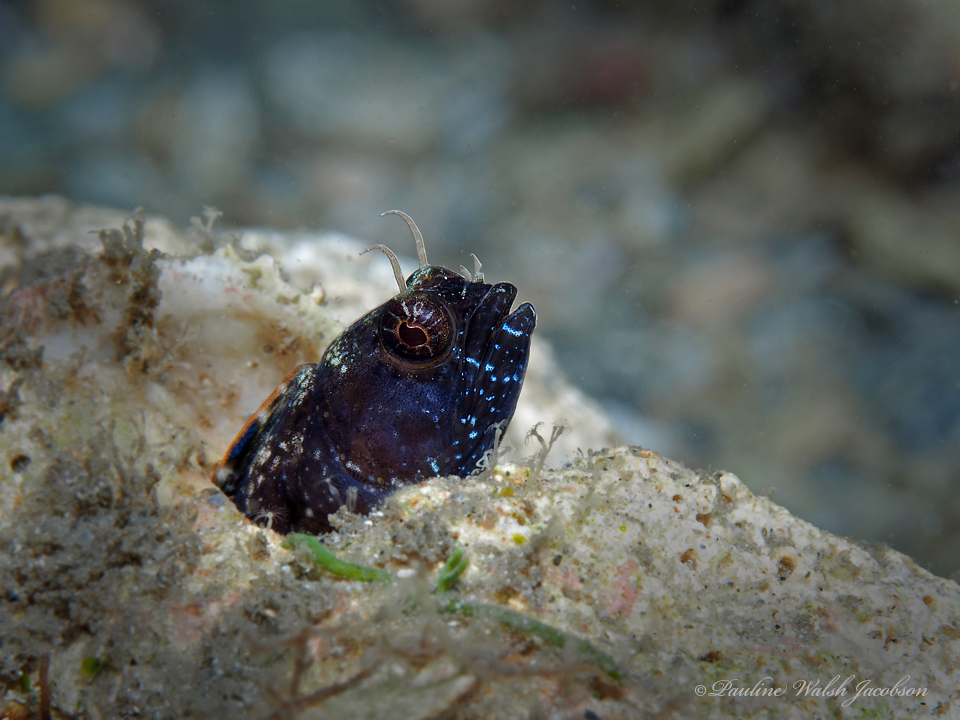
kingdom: Animalia
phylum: Chordata
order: Perciformes
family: Chaenopsidae
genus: Emblemaria
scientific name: Emblemaria pandionis
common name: Sailfin blenny
